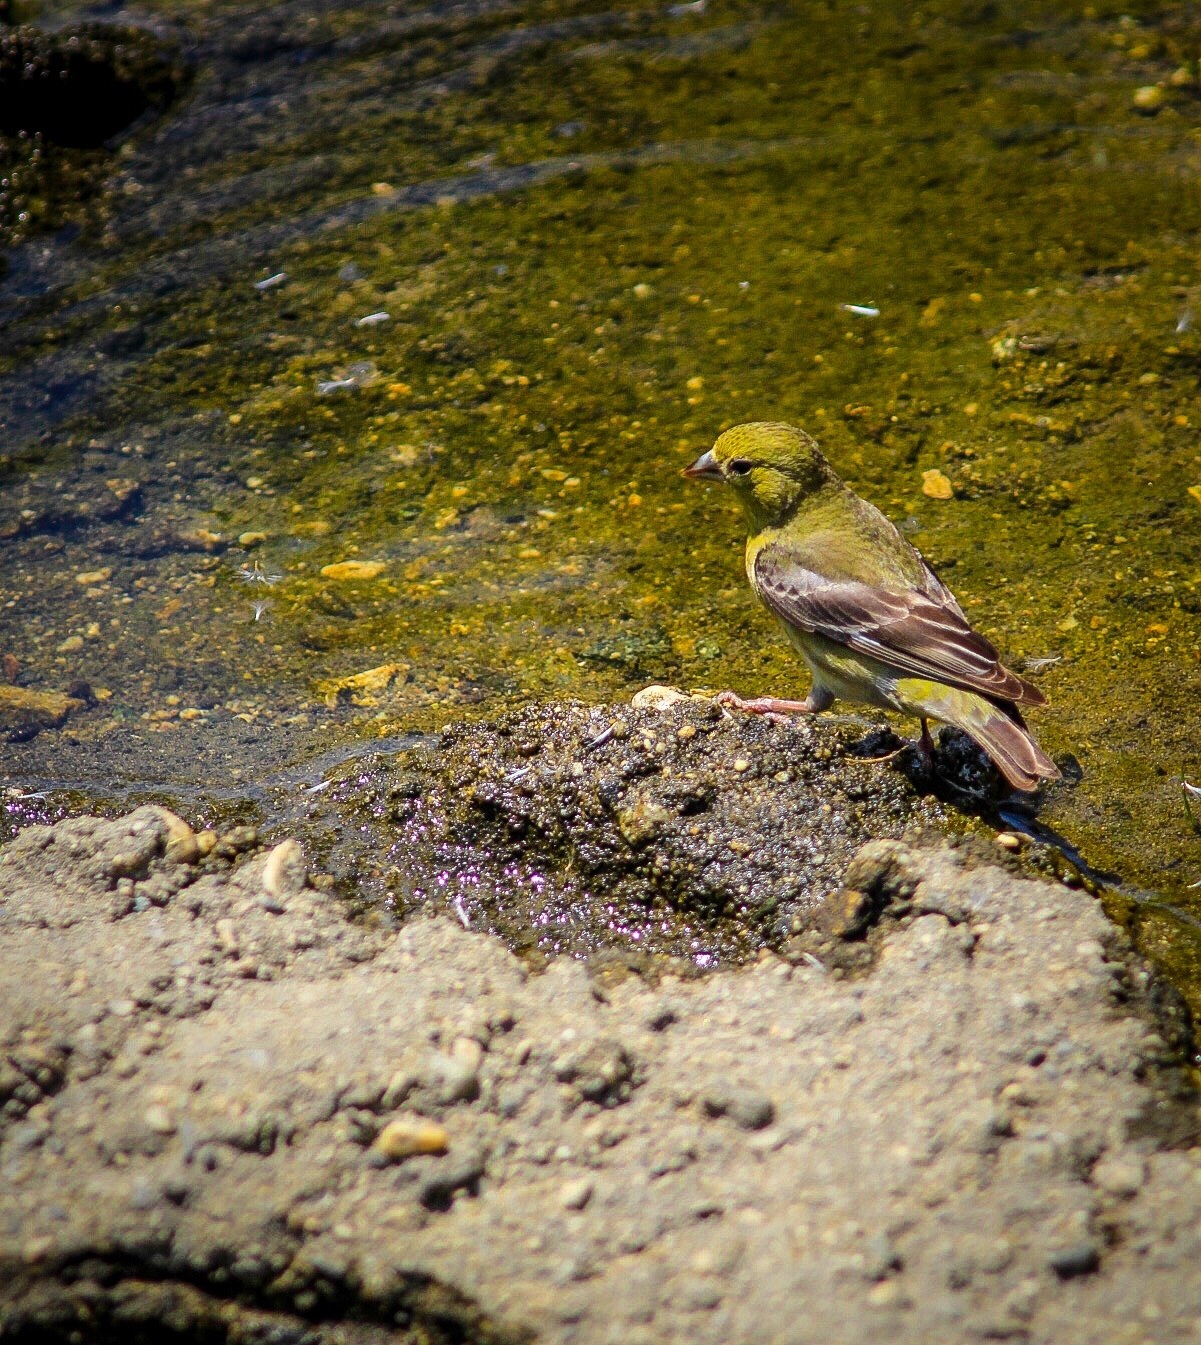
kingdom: Animalia
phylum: Chordata
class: Aves
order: Passeriformes
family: Fringillidae
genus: Spinus
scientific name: Spinus psaltria
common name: Lesser goldfinch
